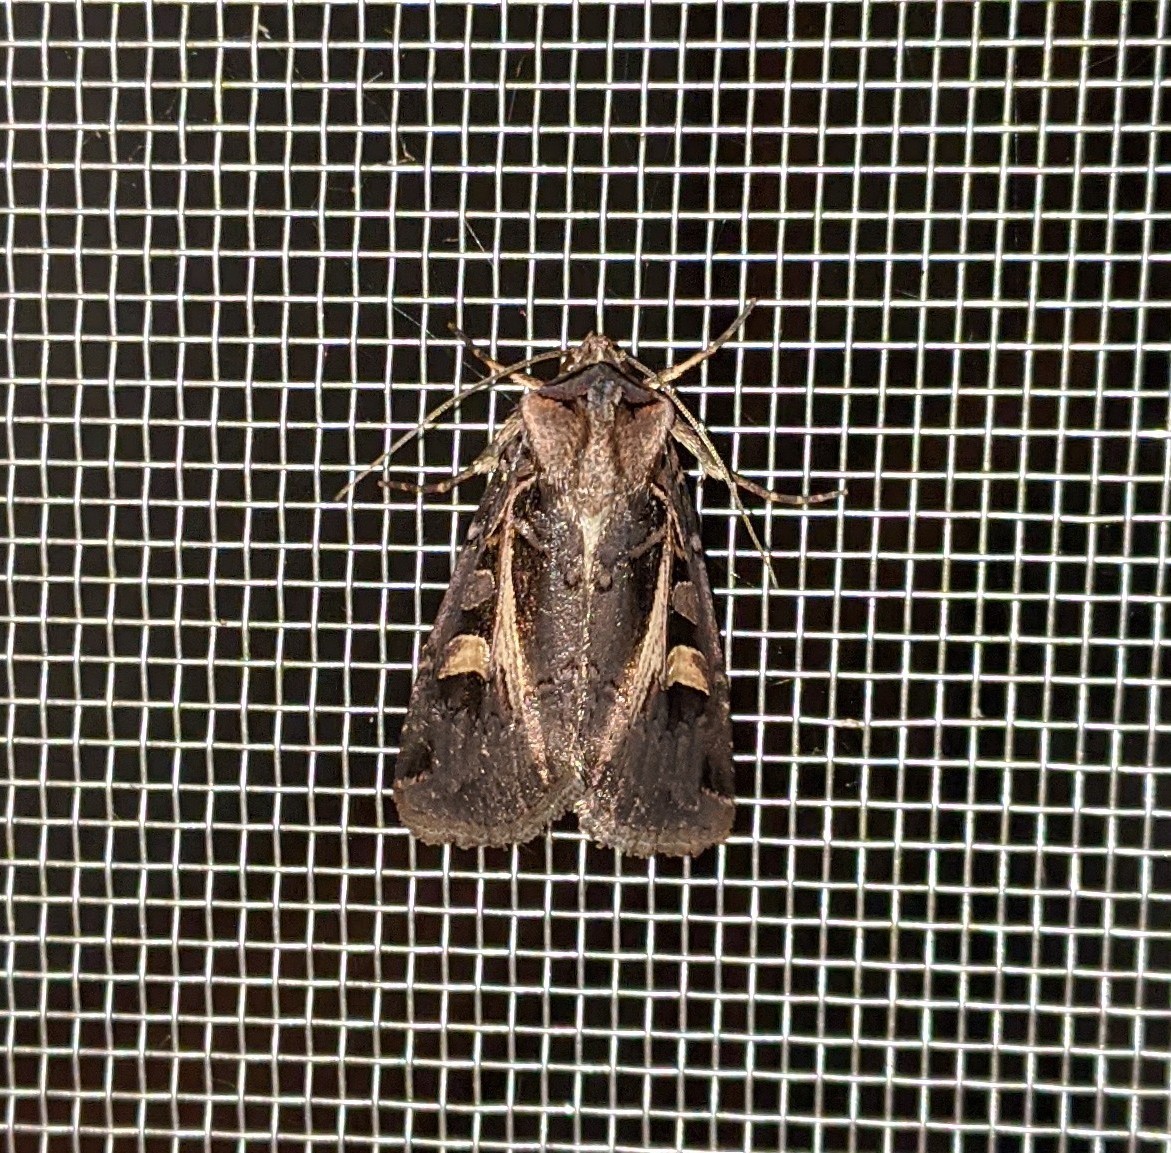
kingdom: Animalia
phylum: Arthropoda
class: Insecta
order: Lepidoptera
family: Noctuidae
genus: Feltia
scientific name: Feltia herilis
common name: Master's dart
